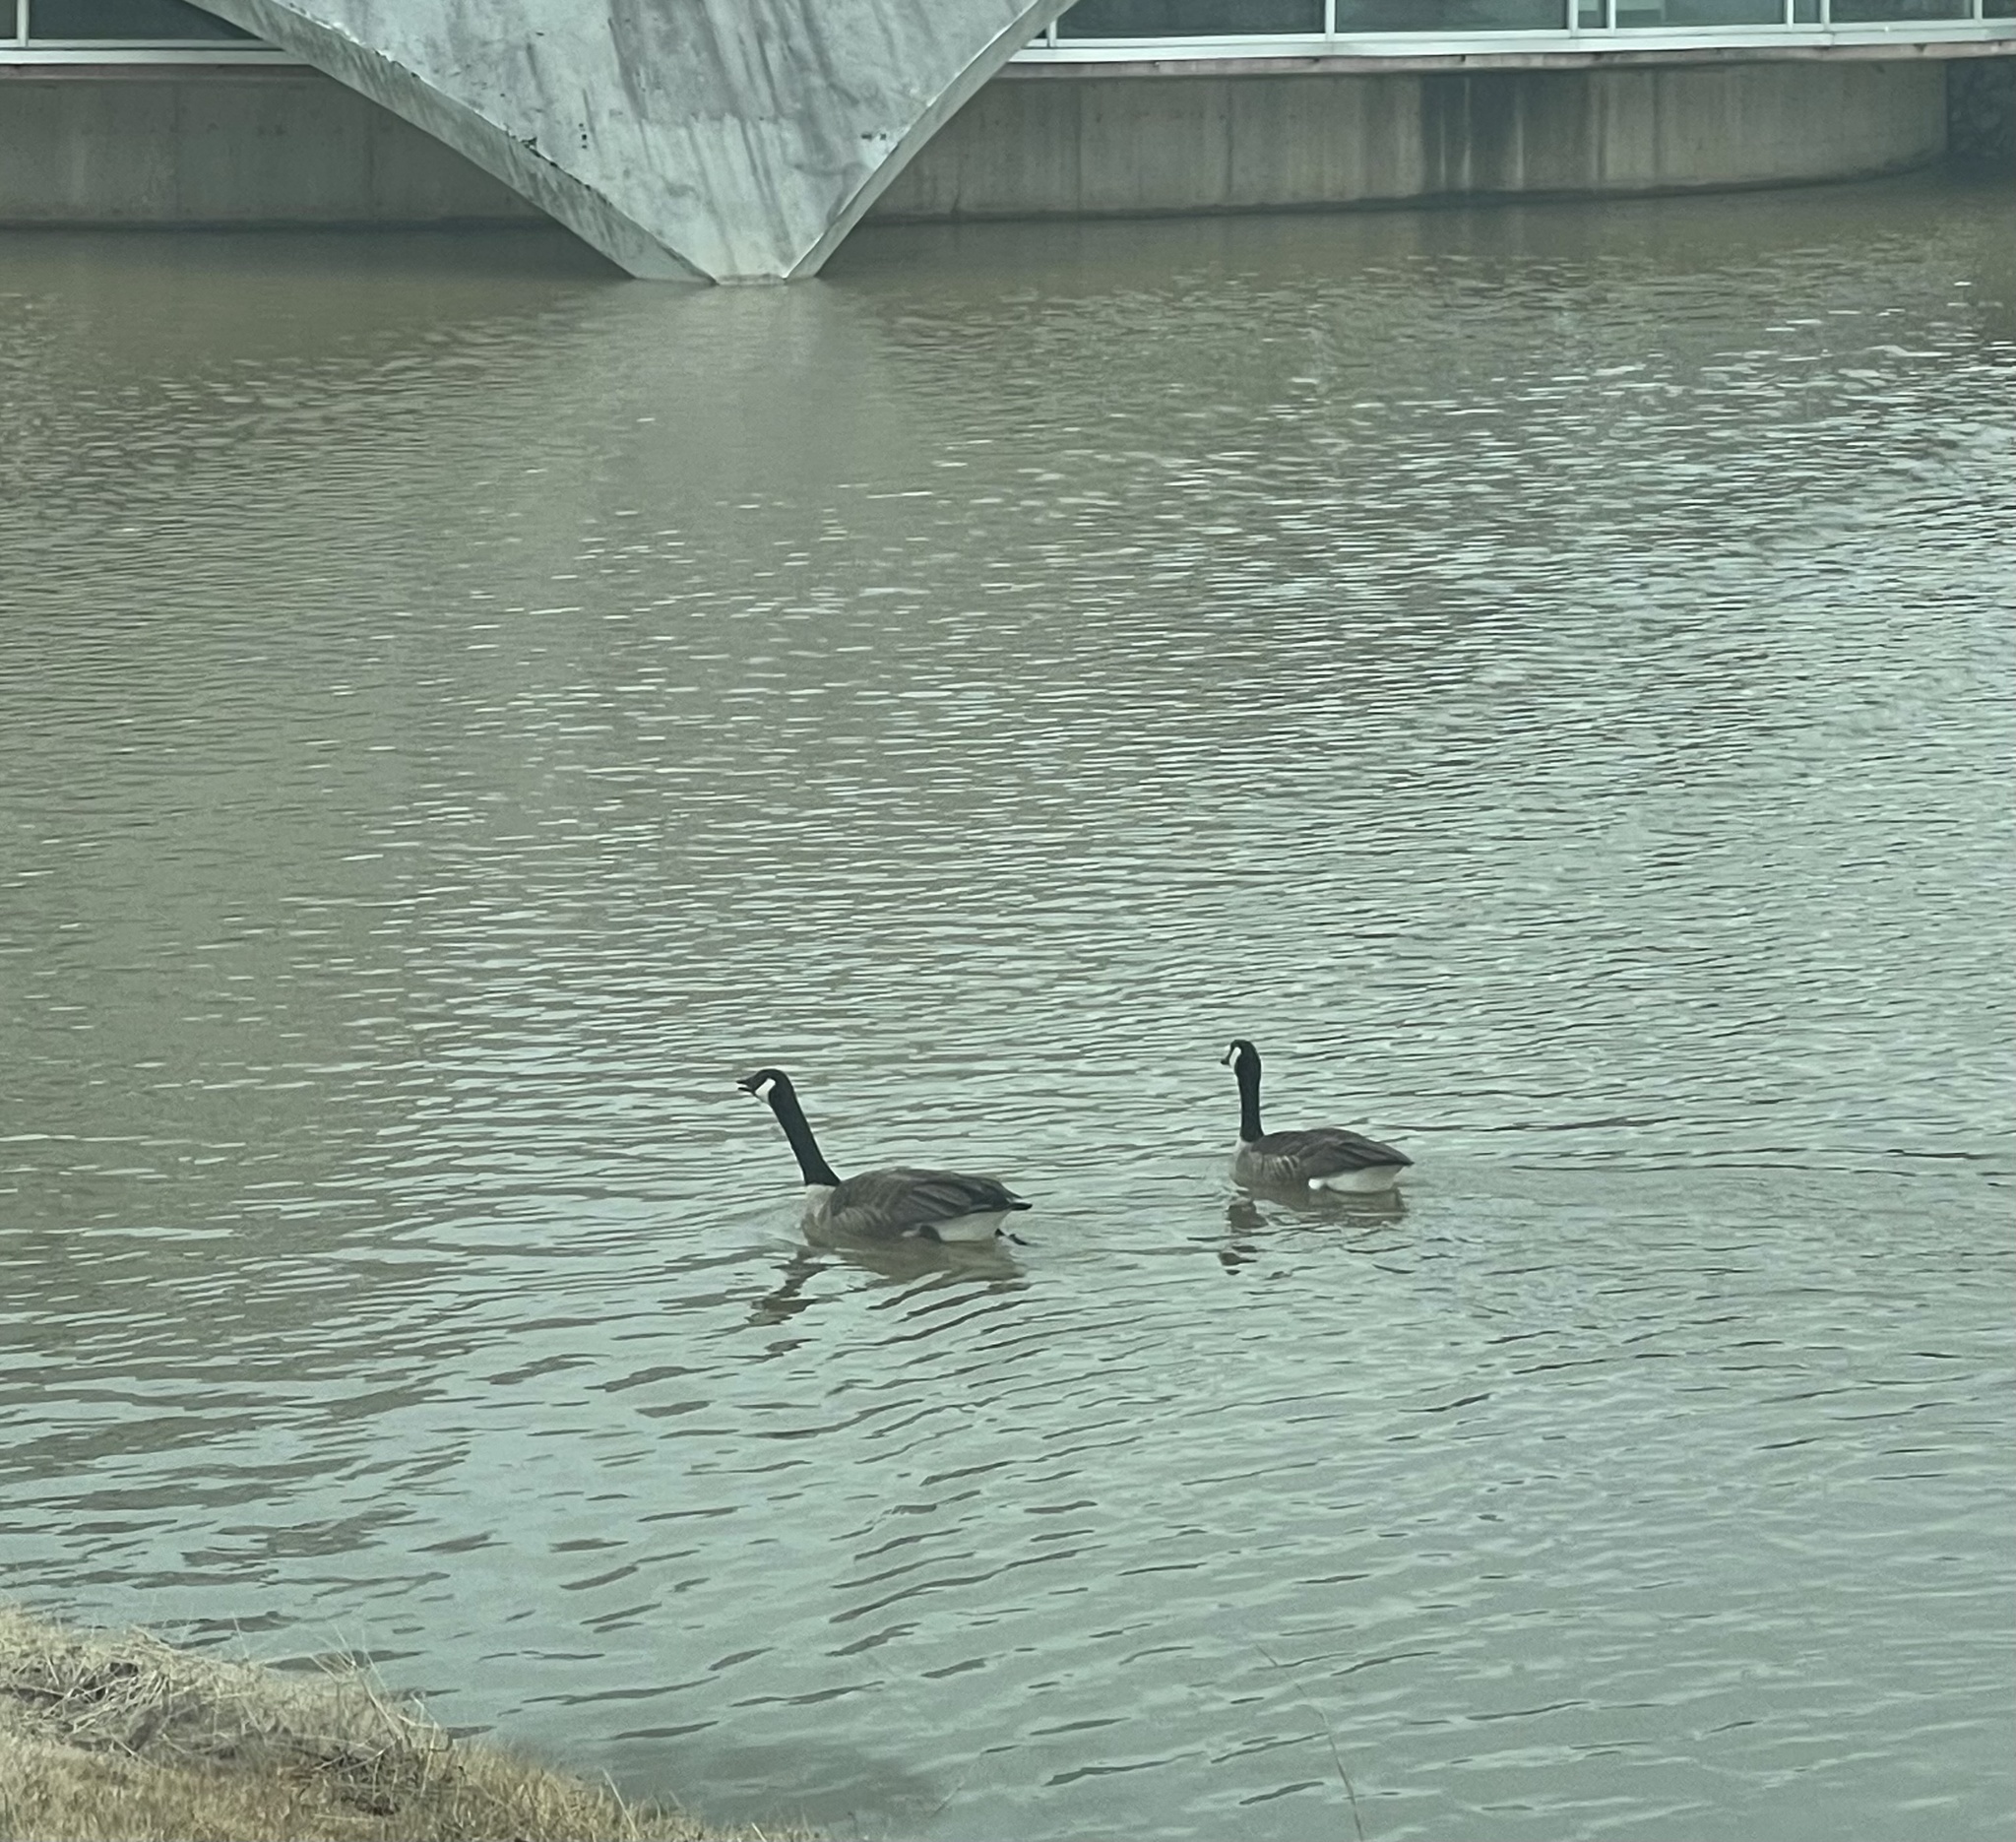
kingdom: Animalia
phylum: Chordata
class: Aves
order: Anseriformes
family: Anatidae
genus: Branta
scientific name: Branta canadensis
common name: Canada goose
